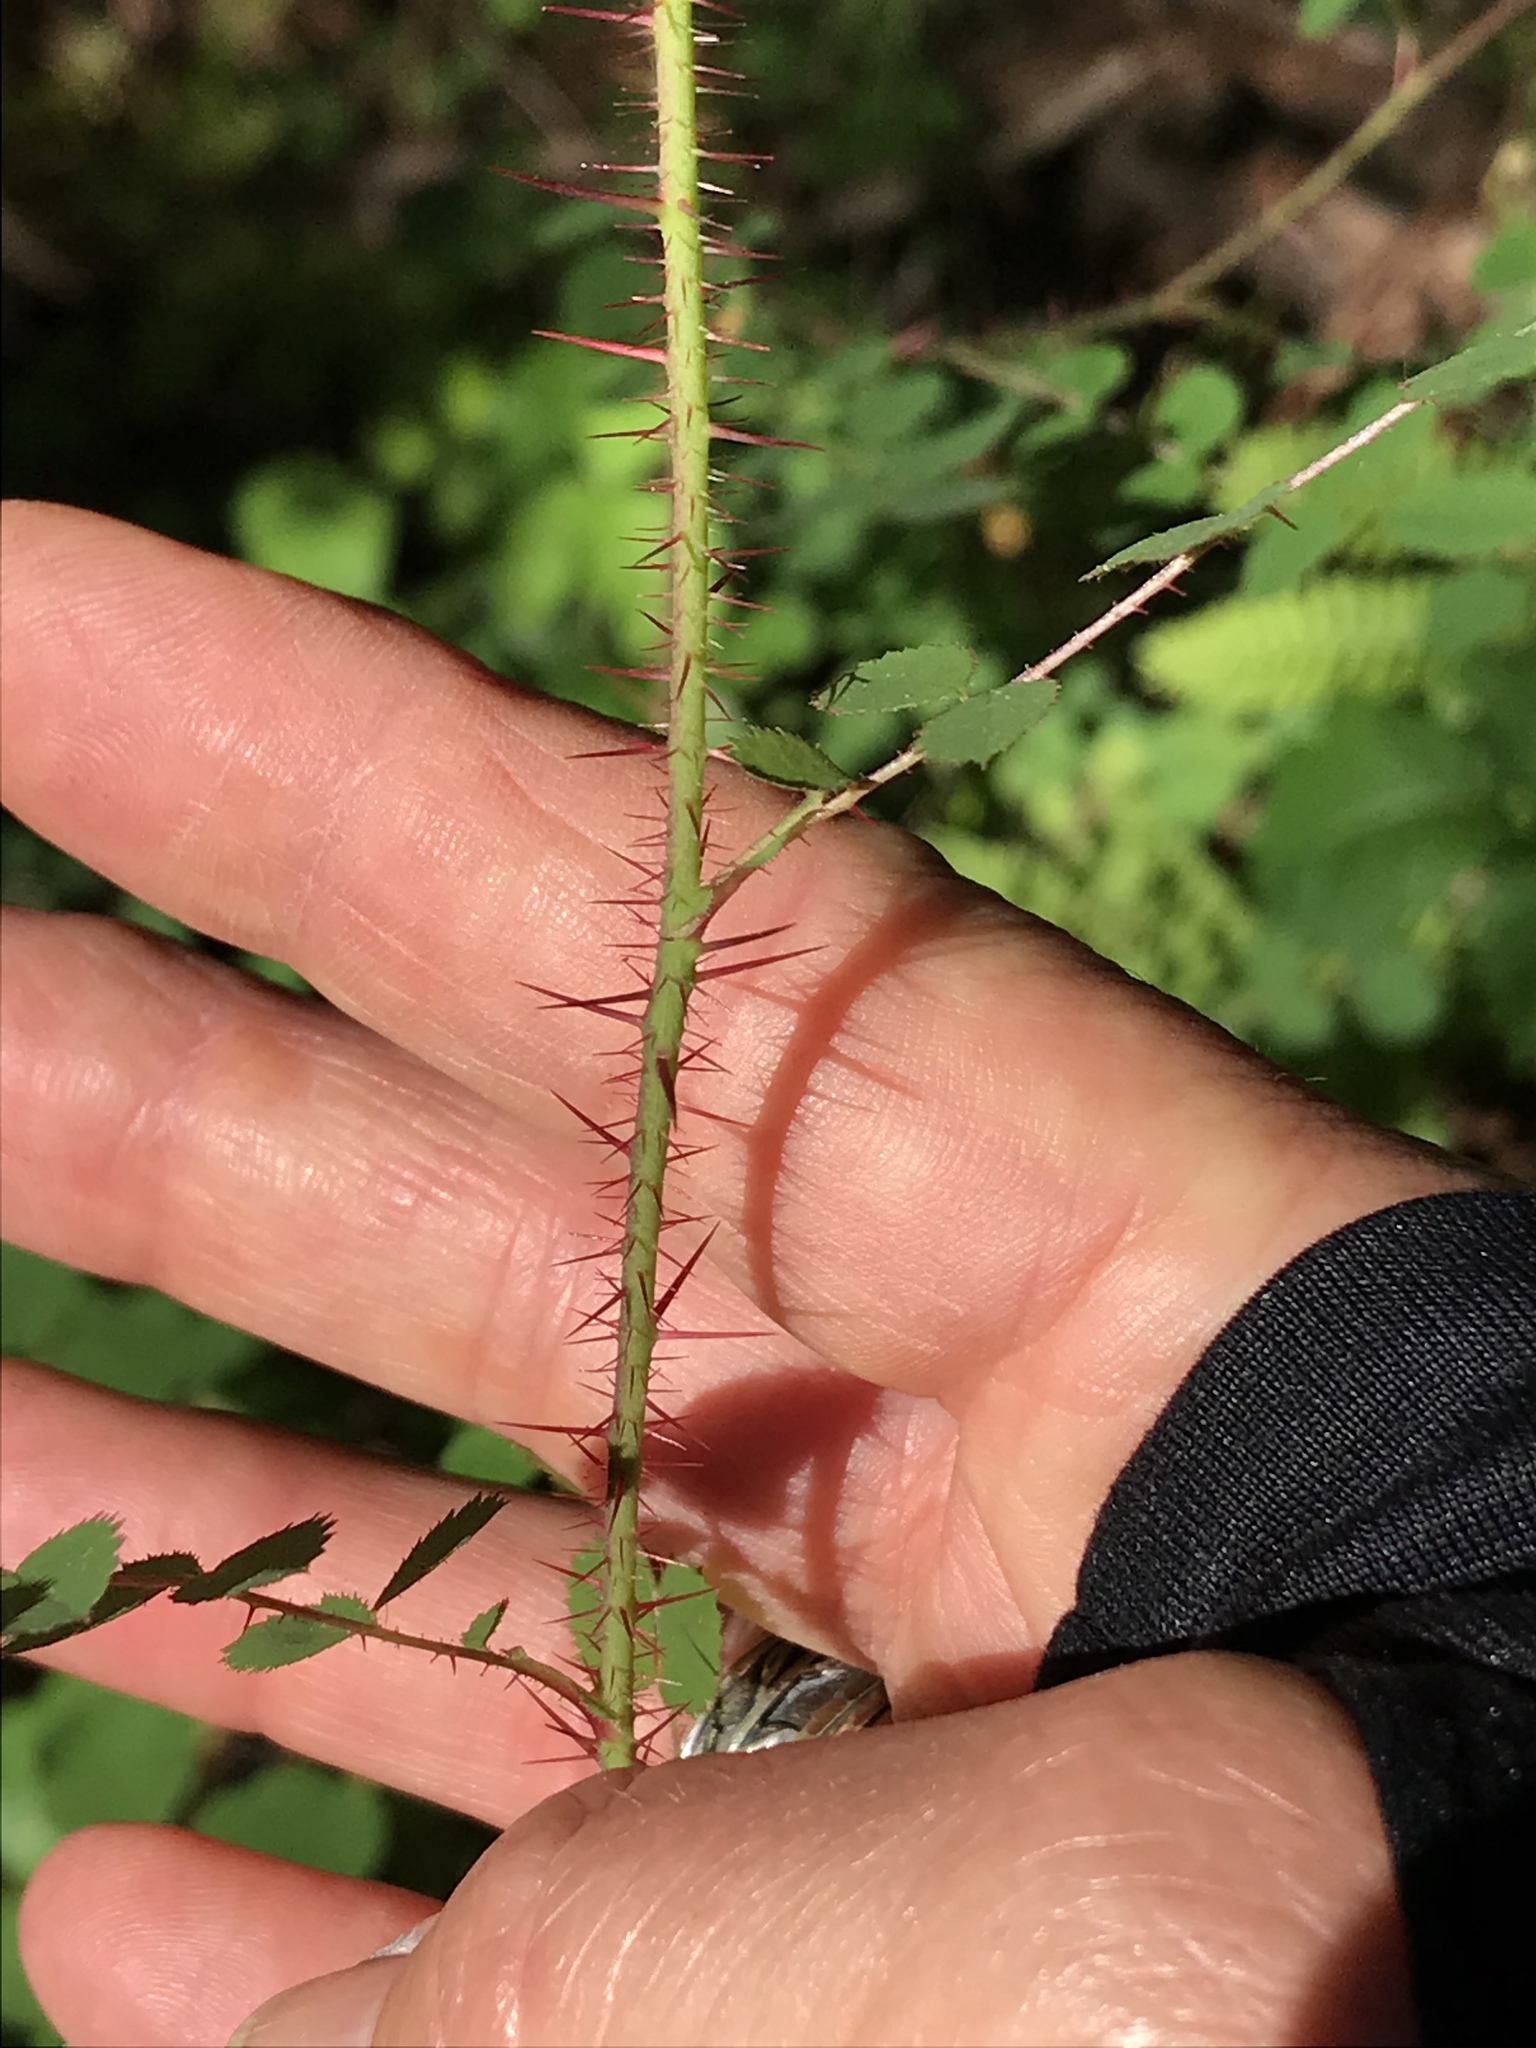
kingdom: Plantae
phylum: Tracheophyta
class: Magnoliopsida
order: Rosales
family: Rosaceae
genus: Rosa
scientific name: Rosa gymnocarpa
